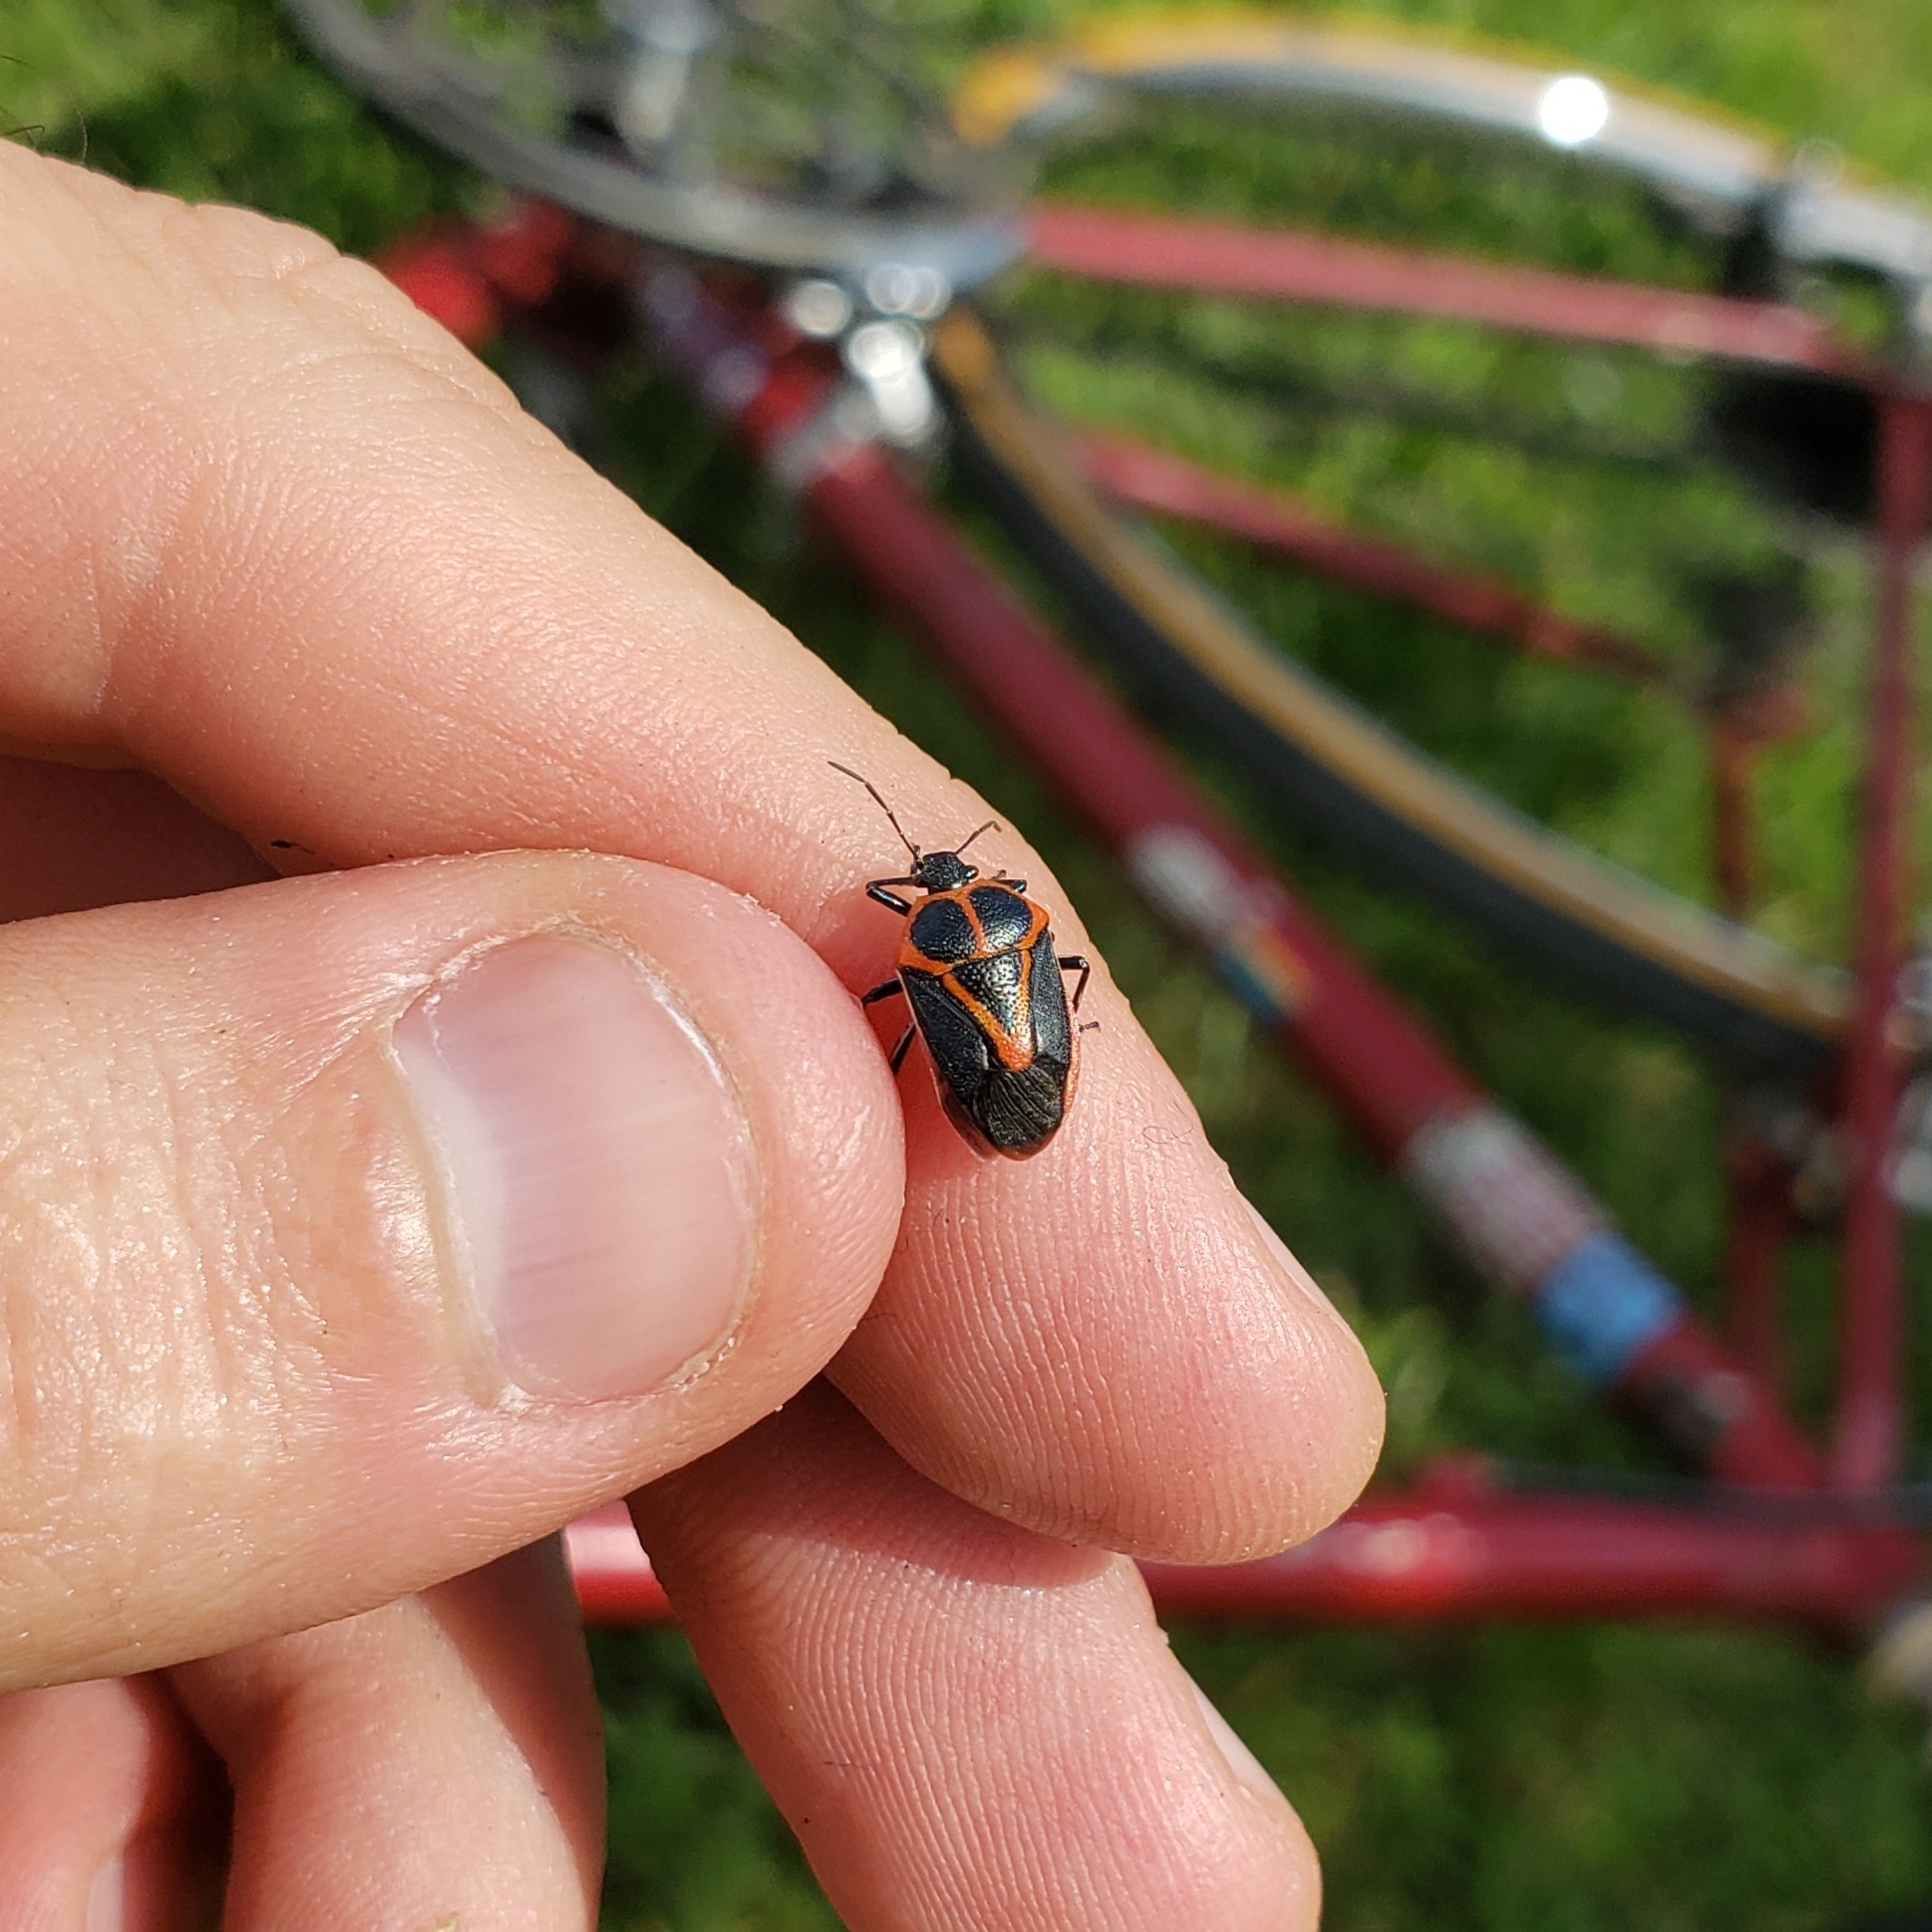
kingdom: Animalia
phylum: Arthropoda
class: Insecta
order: Hemiptera
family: Pentatomidae
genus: Perillus
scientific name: Perillus strigipes
